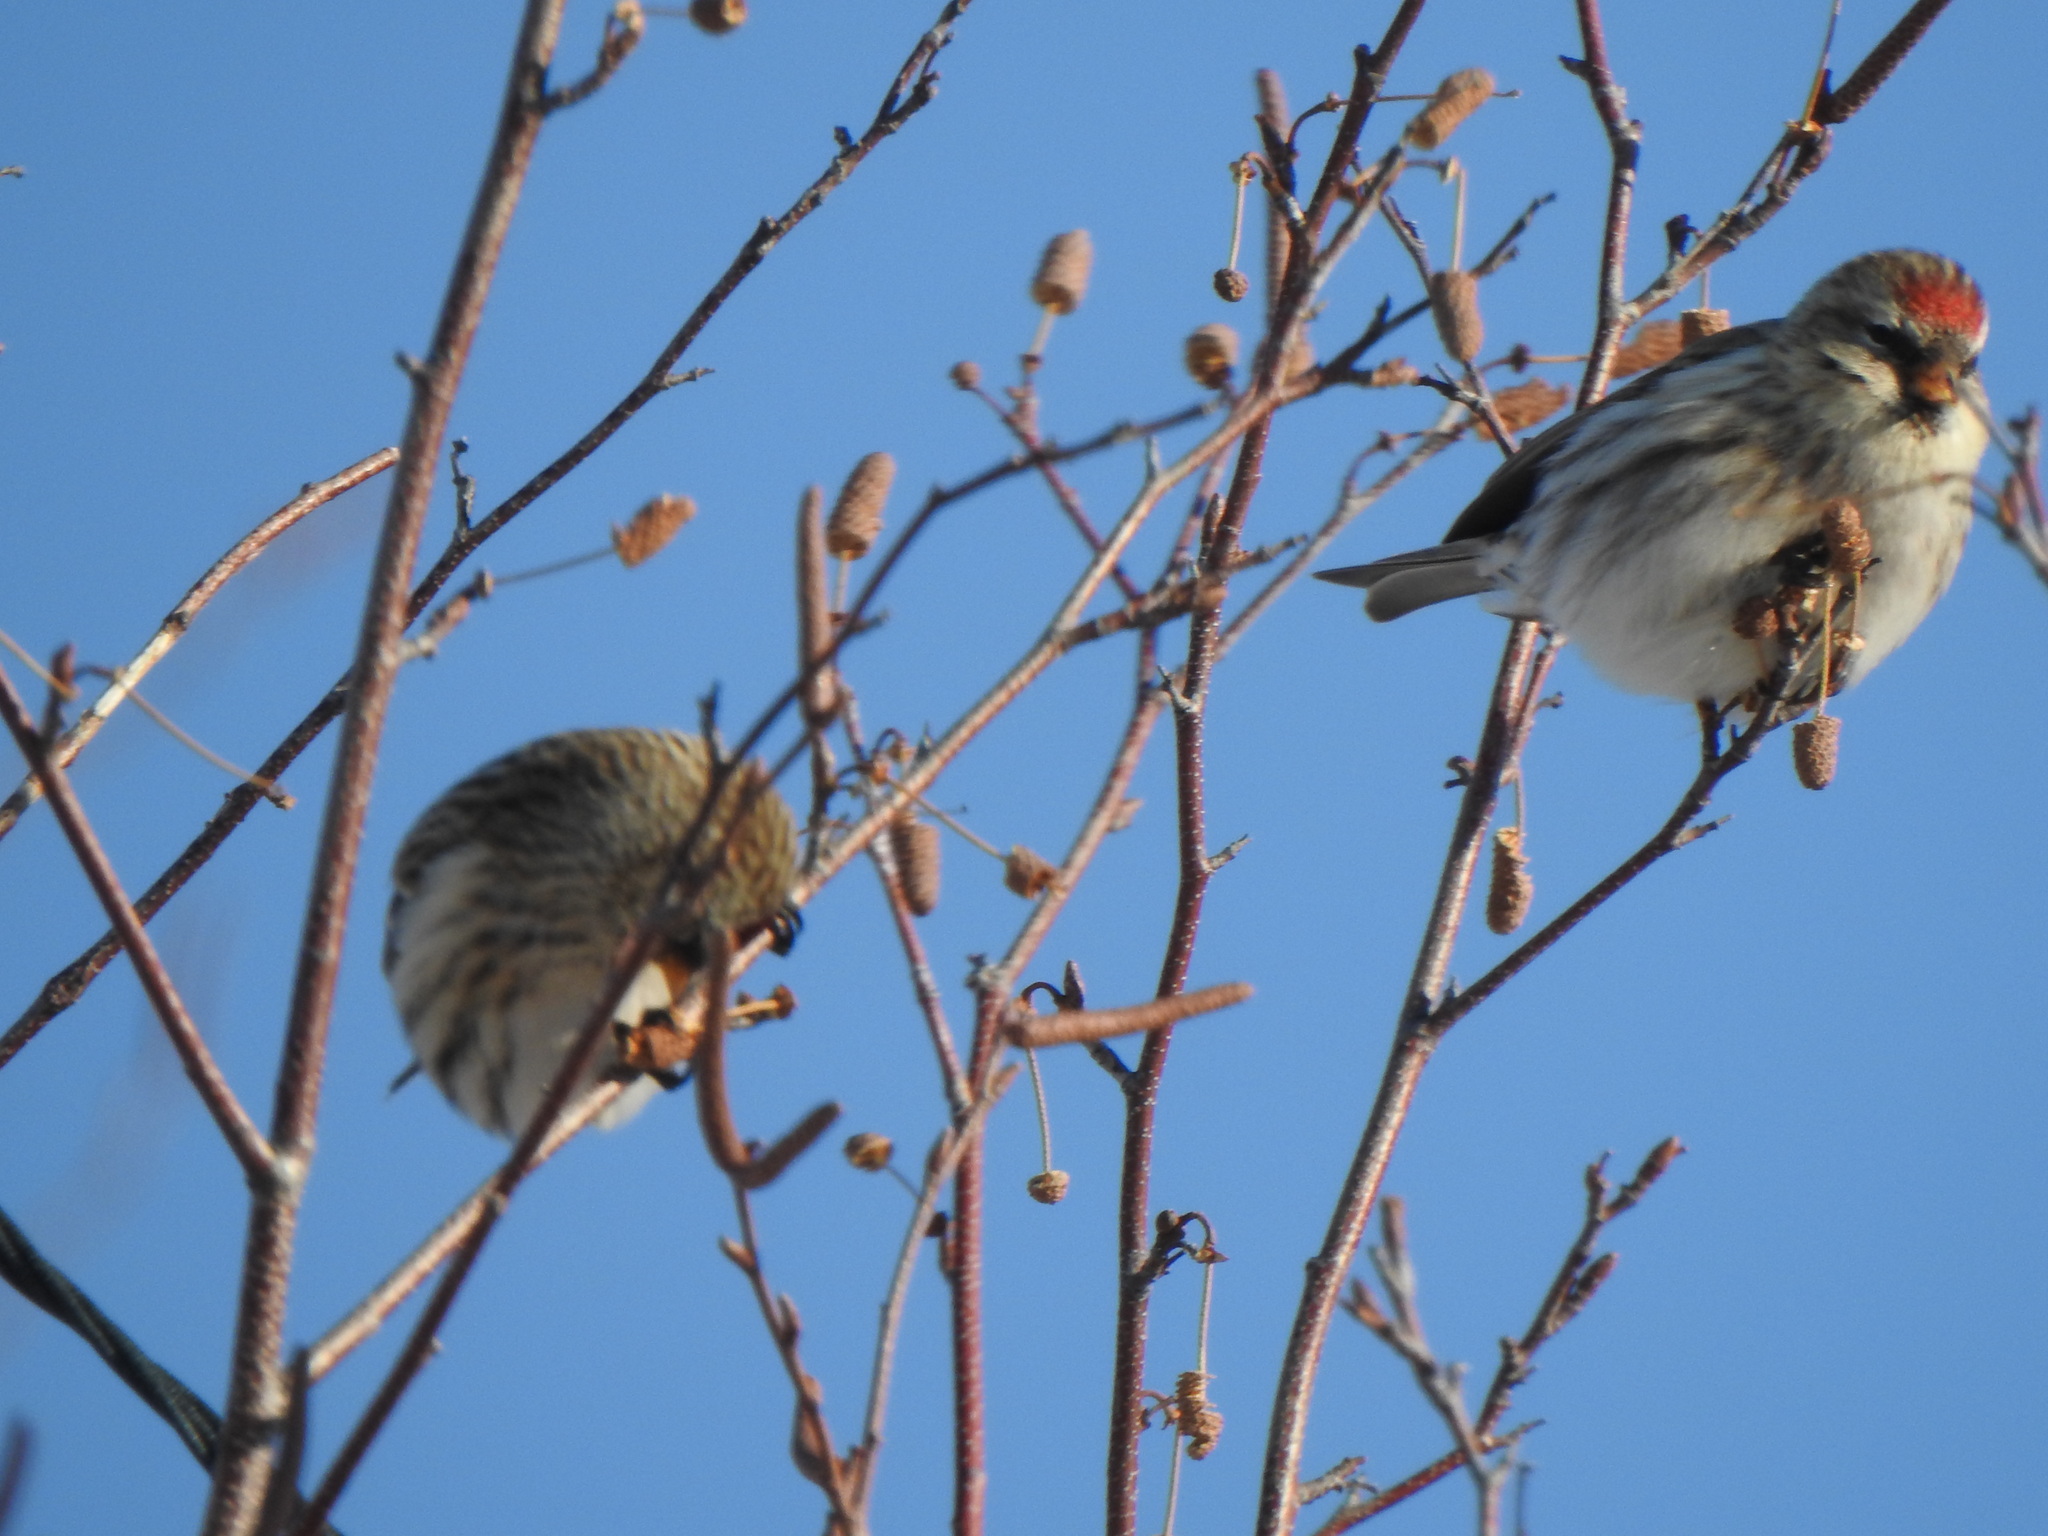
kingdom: Animalia
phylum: Chordata
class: Aves
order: Passeriformes
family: Fringillidae
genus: Acanthis
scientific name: Acanthis flammea
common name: Common redpoll
